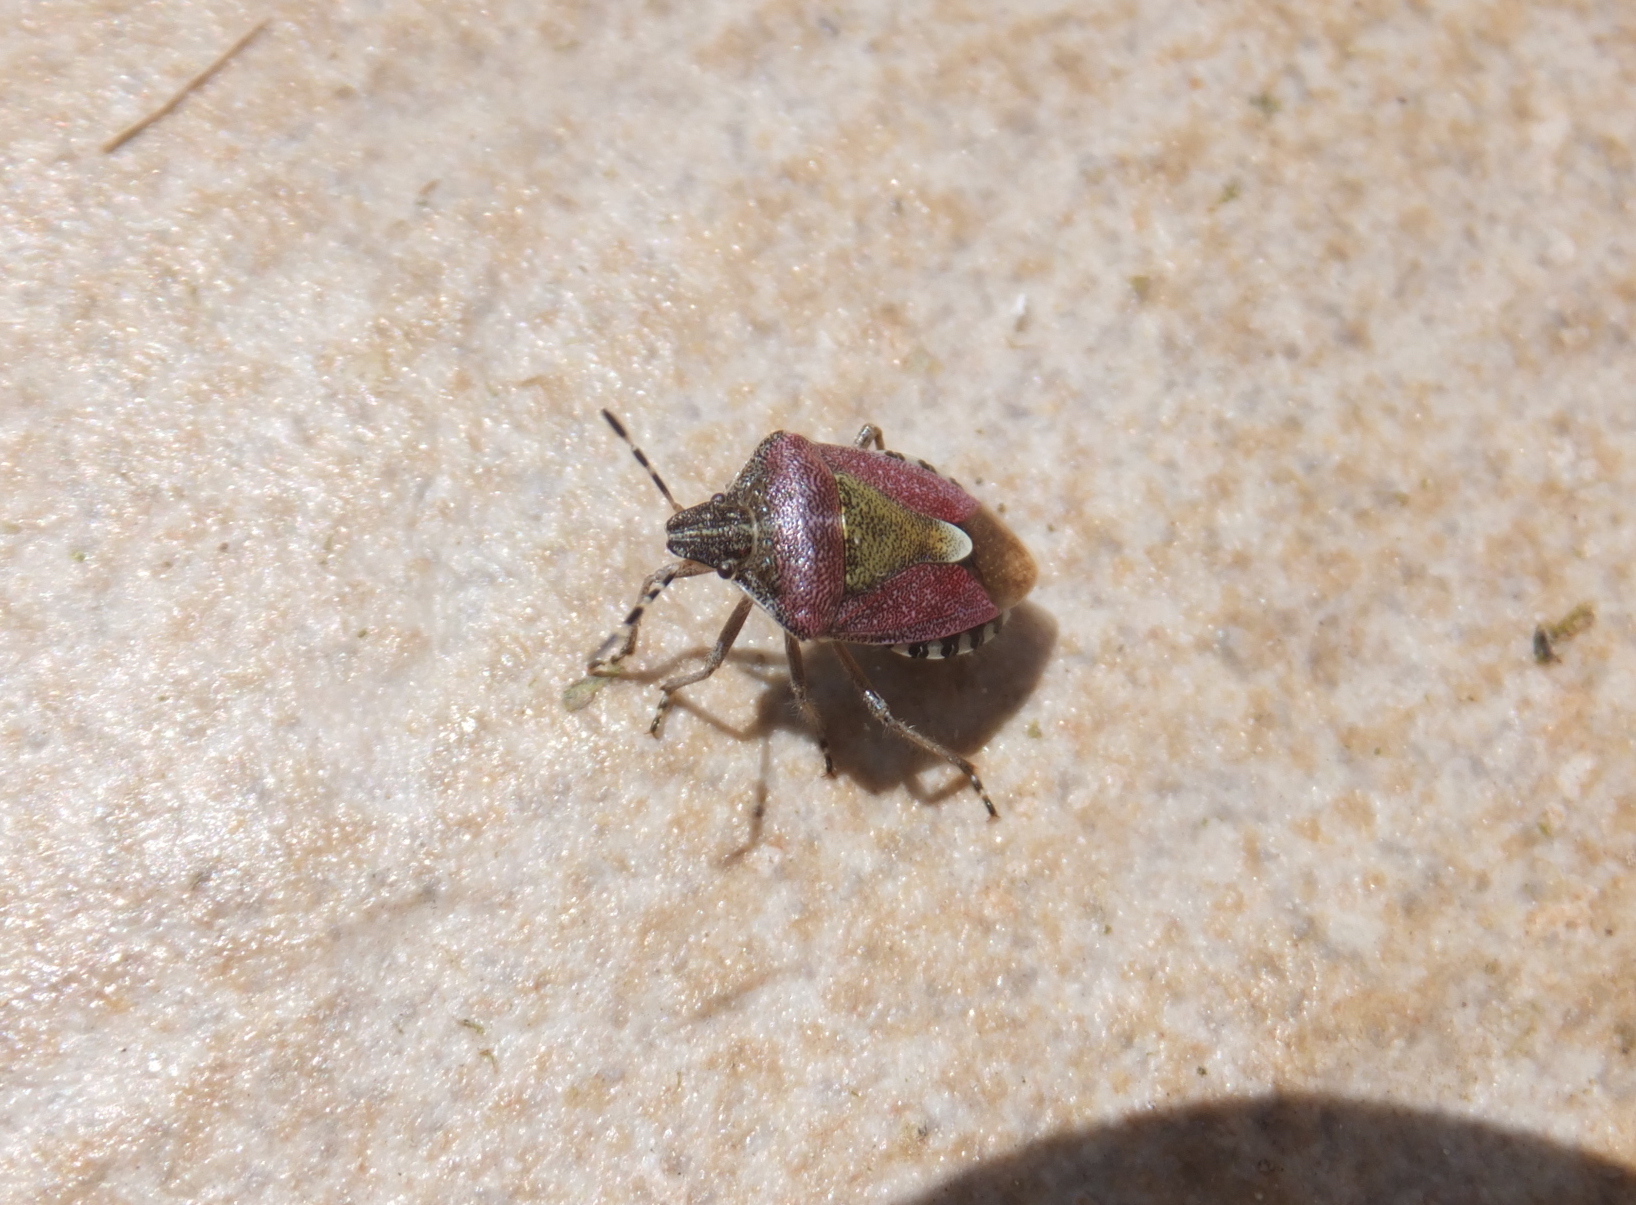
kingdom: Animalia
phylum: Arthropoda
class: Insecta
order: Hemiptera
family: Pentatomidae
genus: Dolycoris
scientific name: Dolycoris baccarum
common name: Sloe bug
